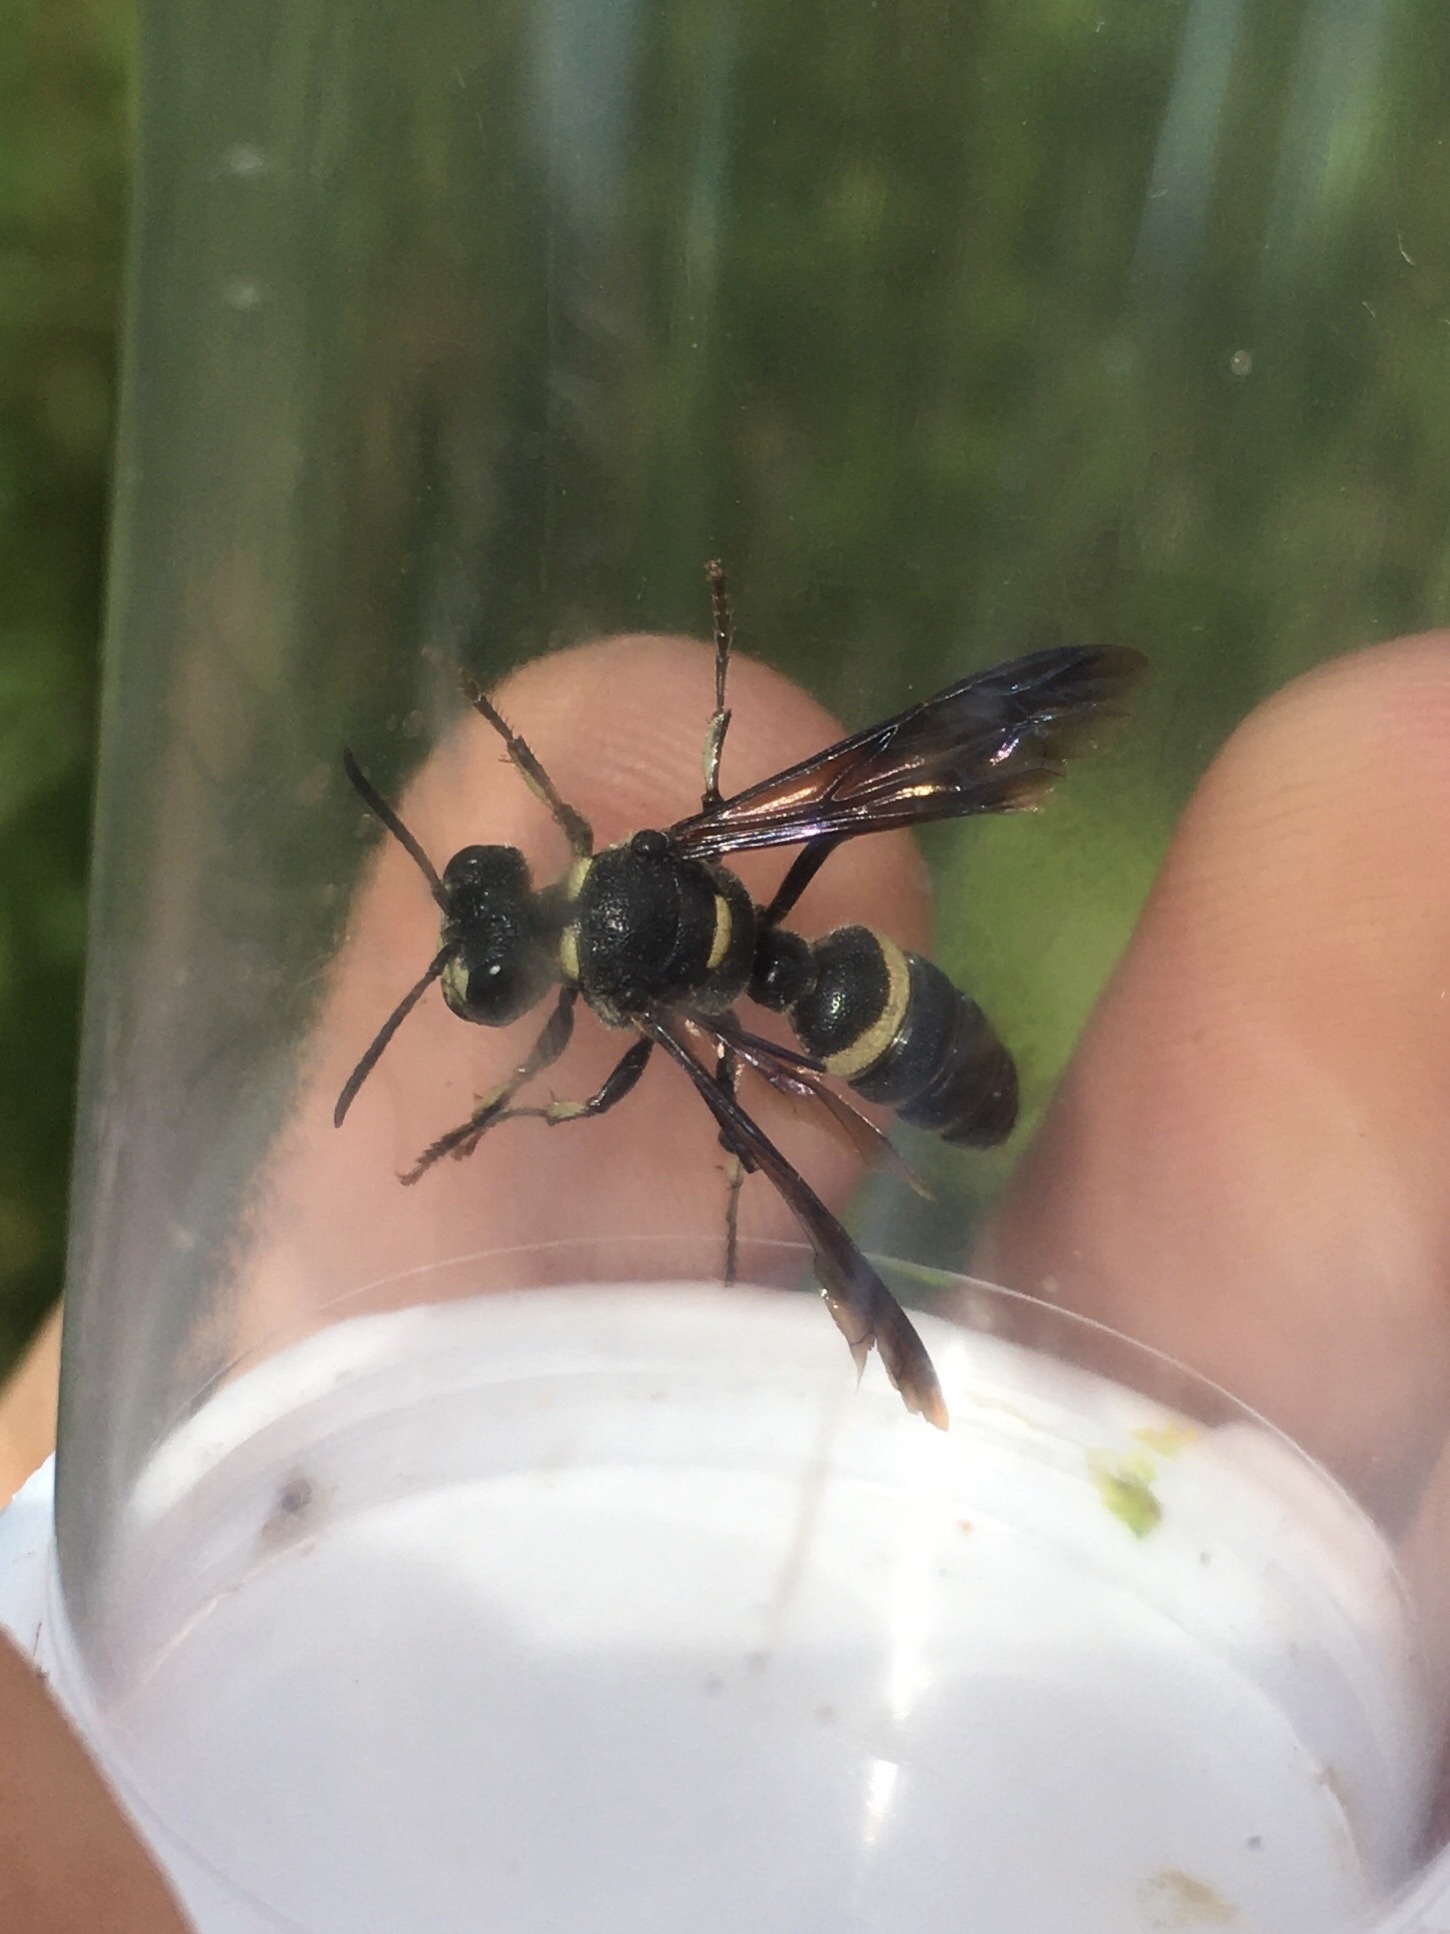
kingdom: Animalia
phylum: Arthropoda
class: Insecta
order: Hymenoptera
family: Crabronidae
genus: Cerceris
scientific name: Cerceris fumipennis
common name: Smokey-winged beetle bandit wasp
